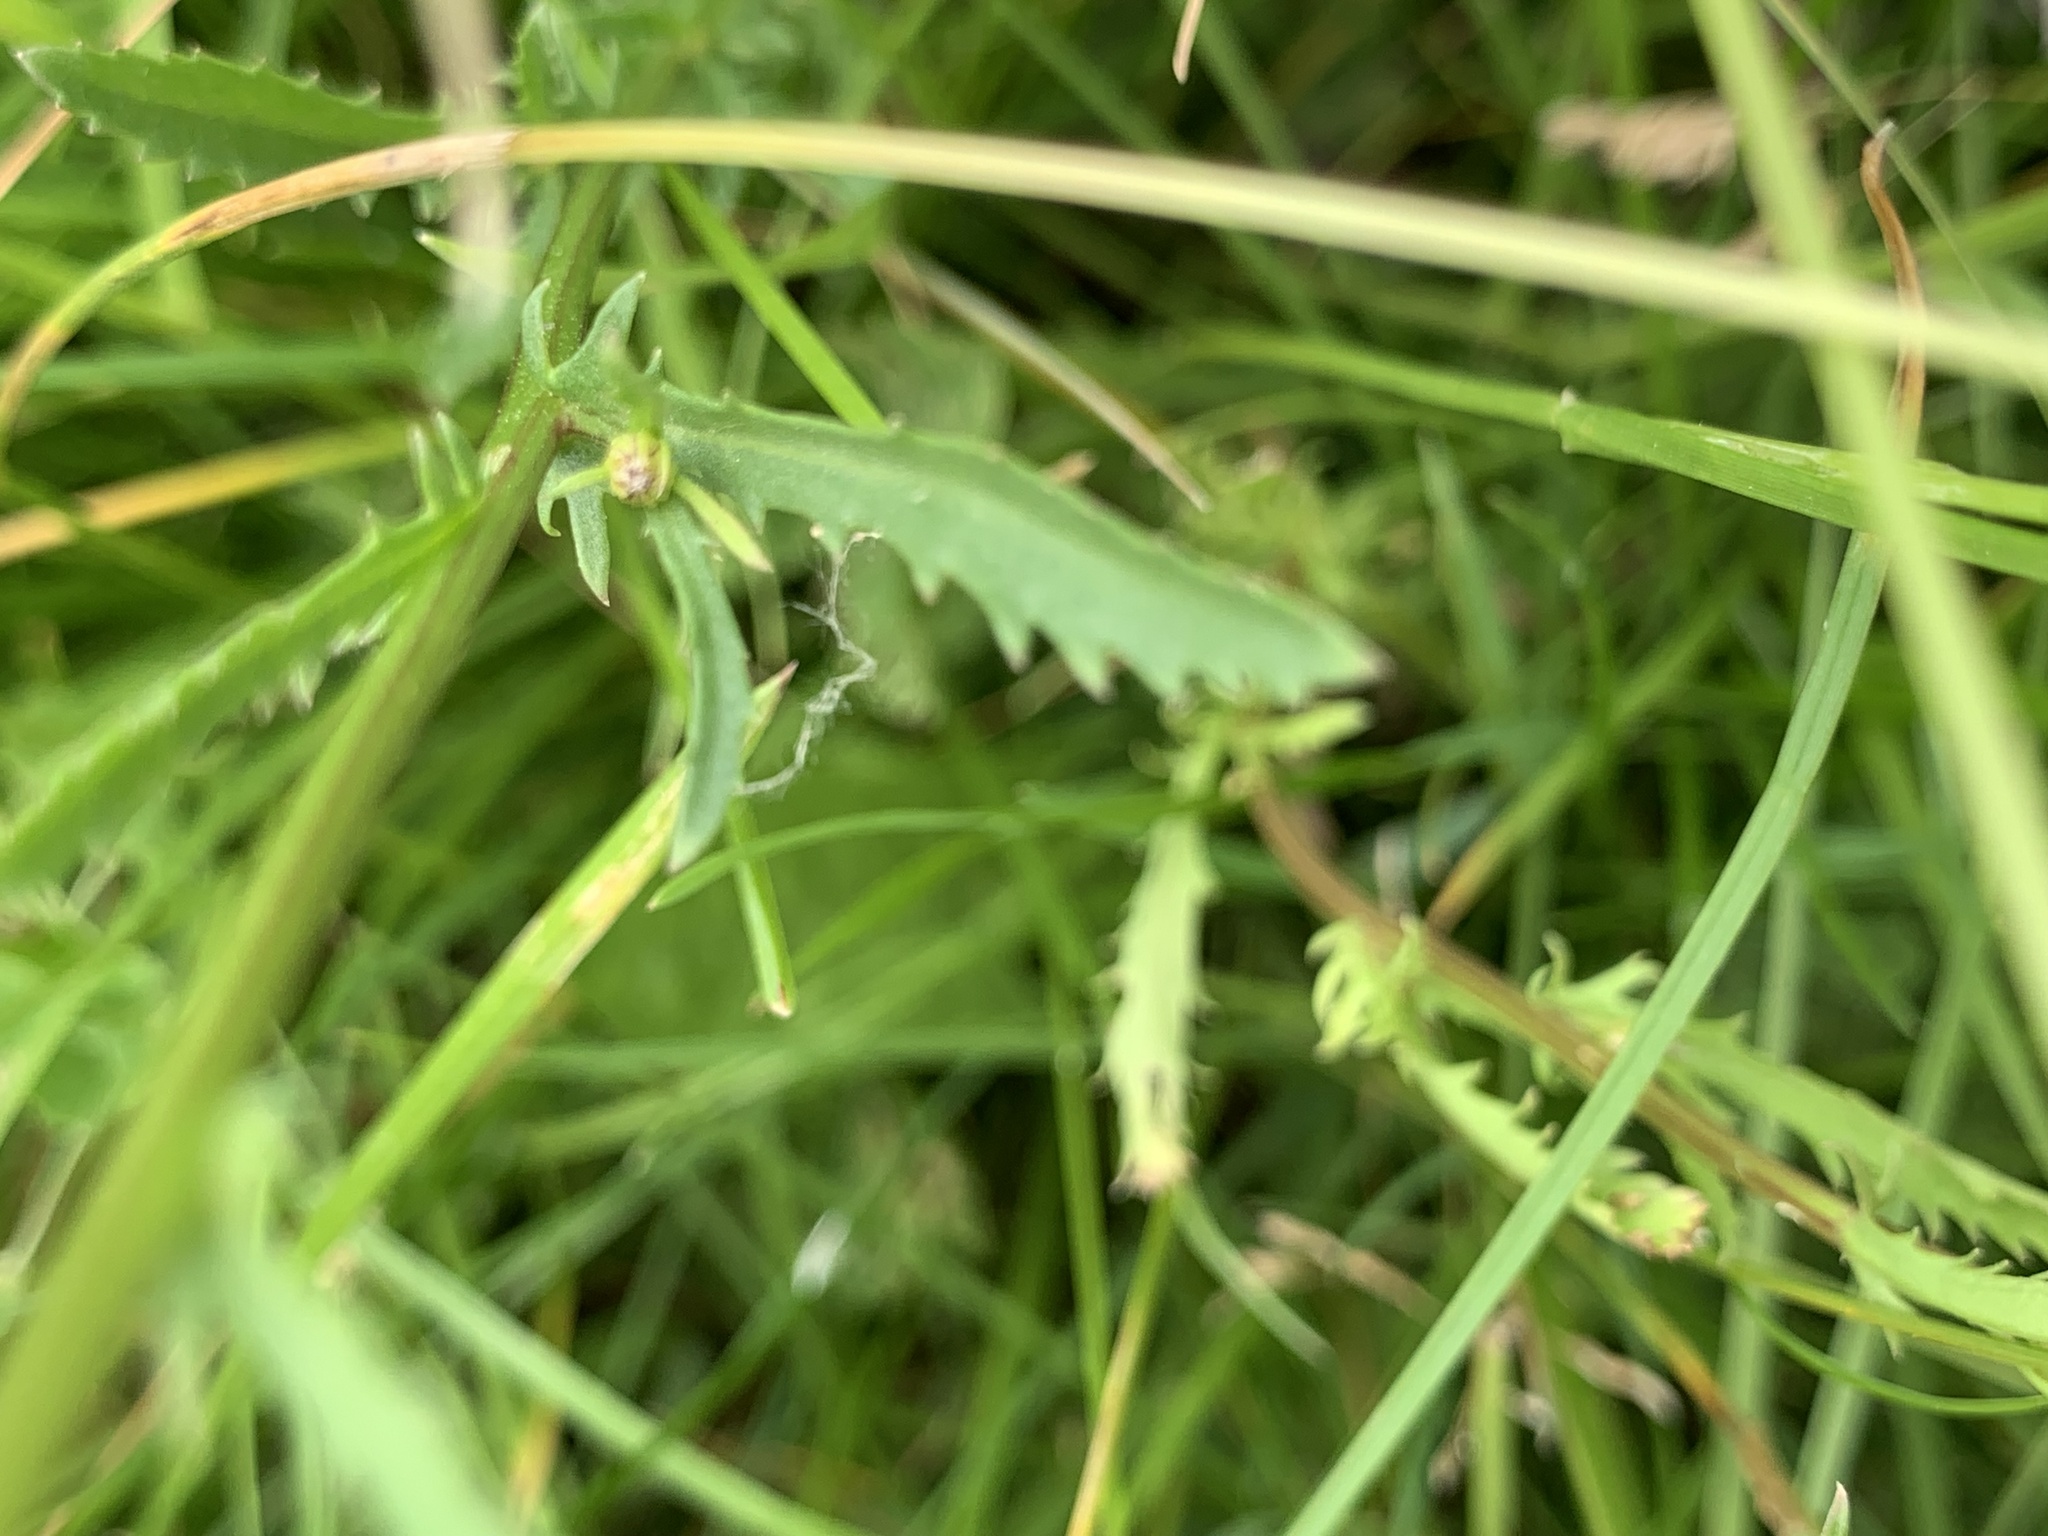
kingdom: Plantae
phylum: Tracheophyta
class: Magnoliopsida
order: Asterales
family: Asteraceae
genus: Leucanthemum
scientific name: Leucanthemum vulgare
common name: Oxeye daisy
